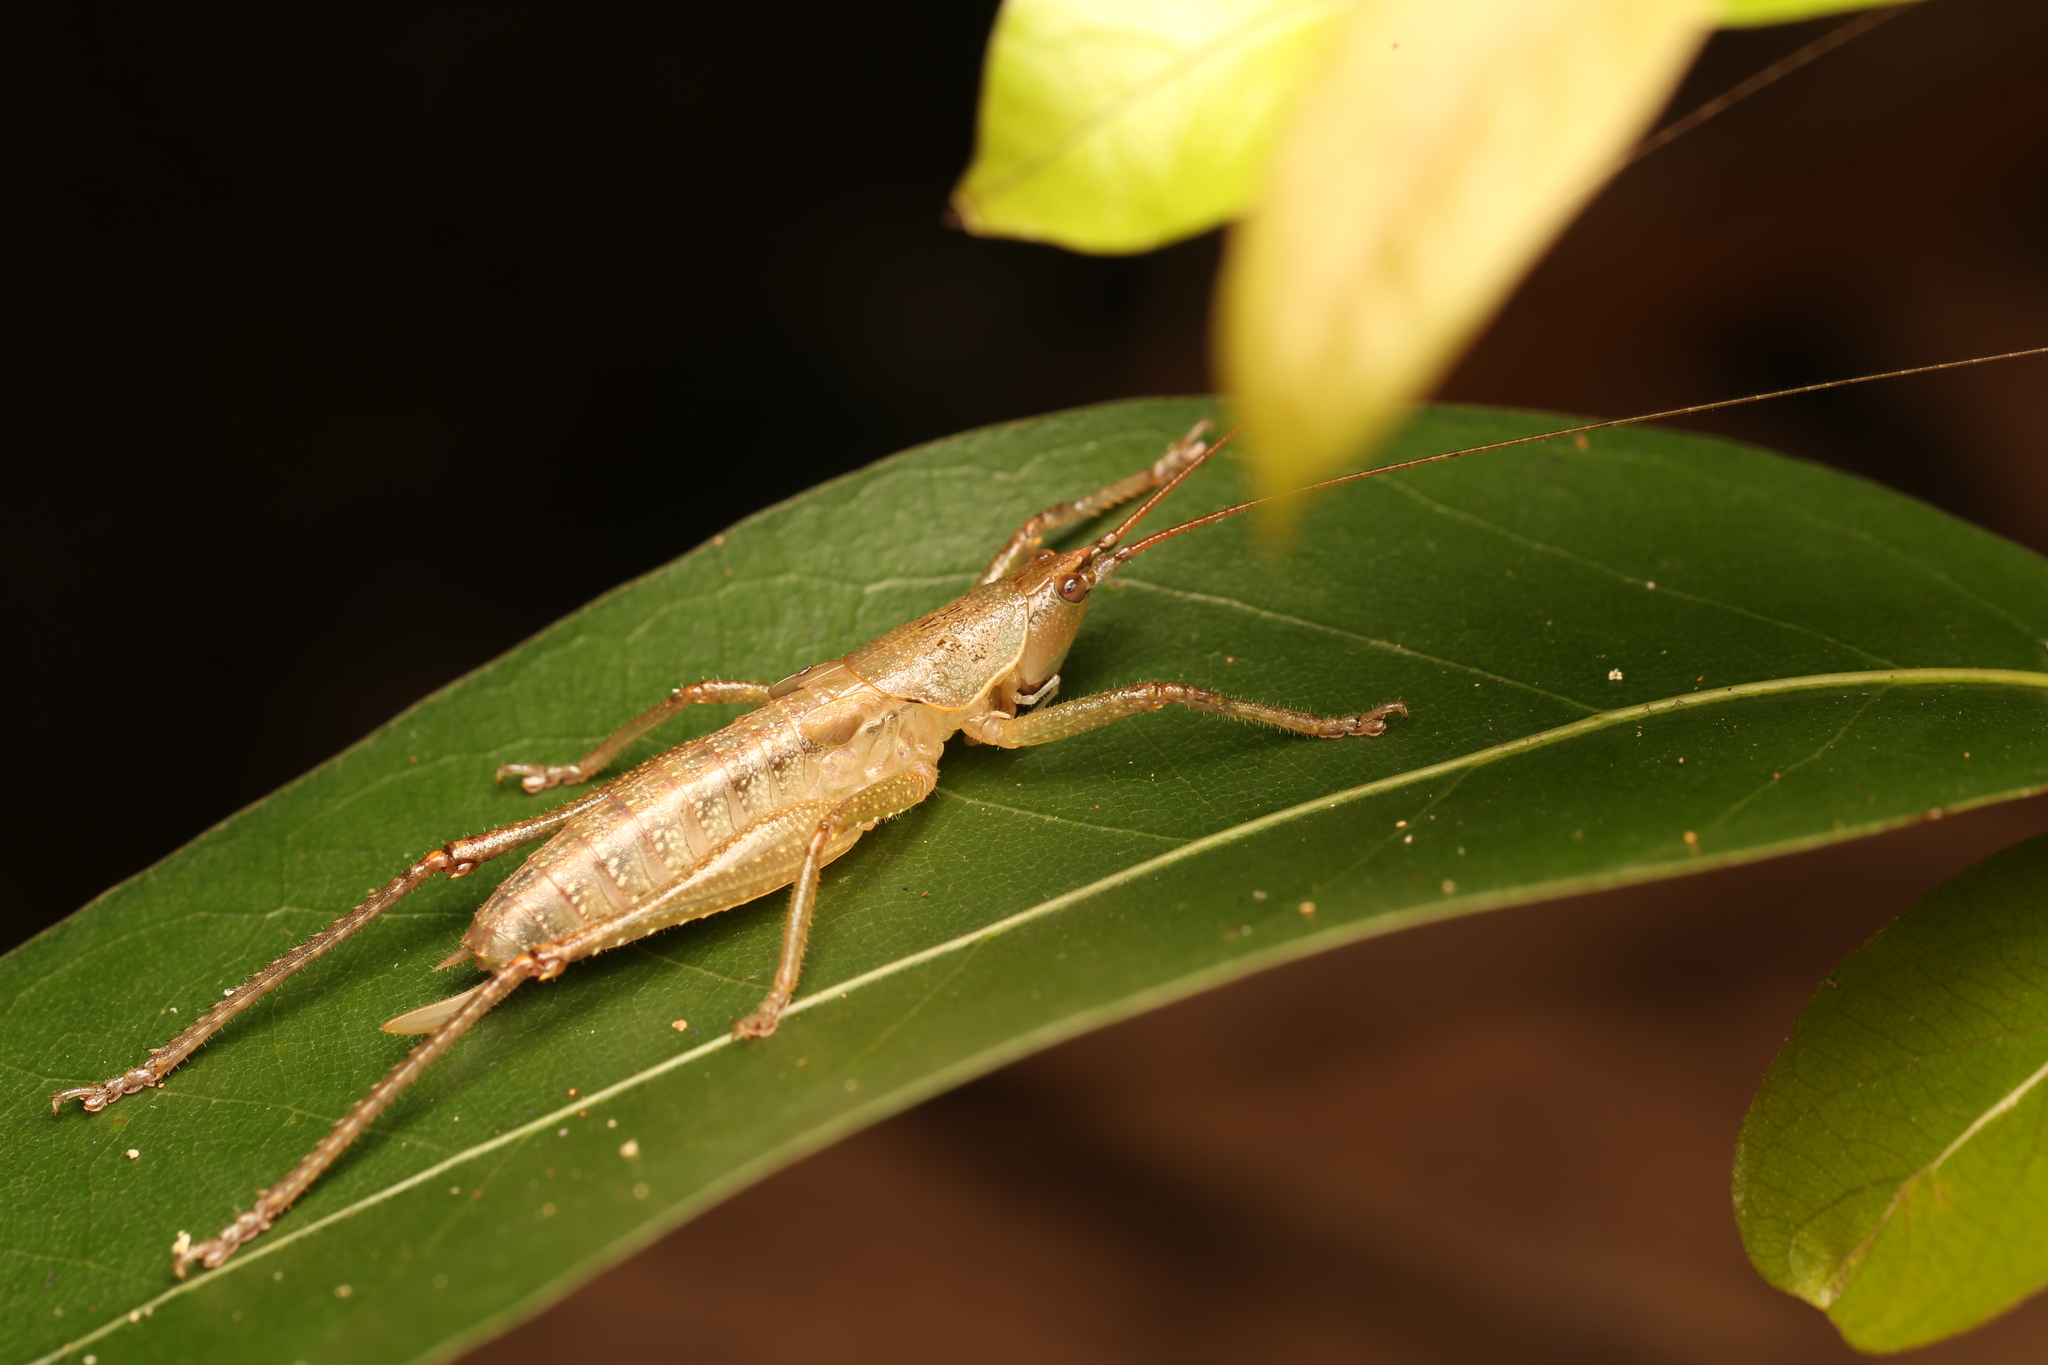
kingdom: Animalia
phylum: Arthropoda
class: Insecta
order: Orthoptera
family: Tettigoniidae
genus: Austrosalomona
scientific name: Austrosalomona falcata
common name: Olive-green coastal katydid
